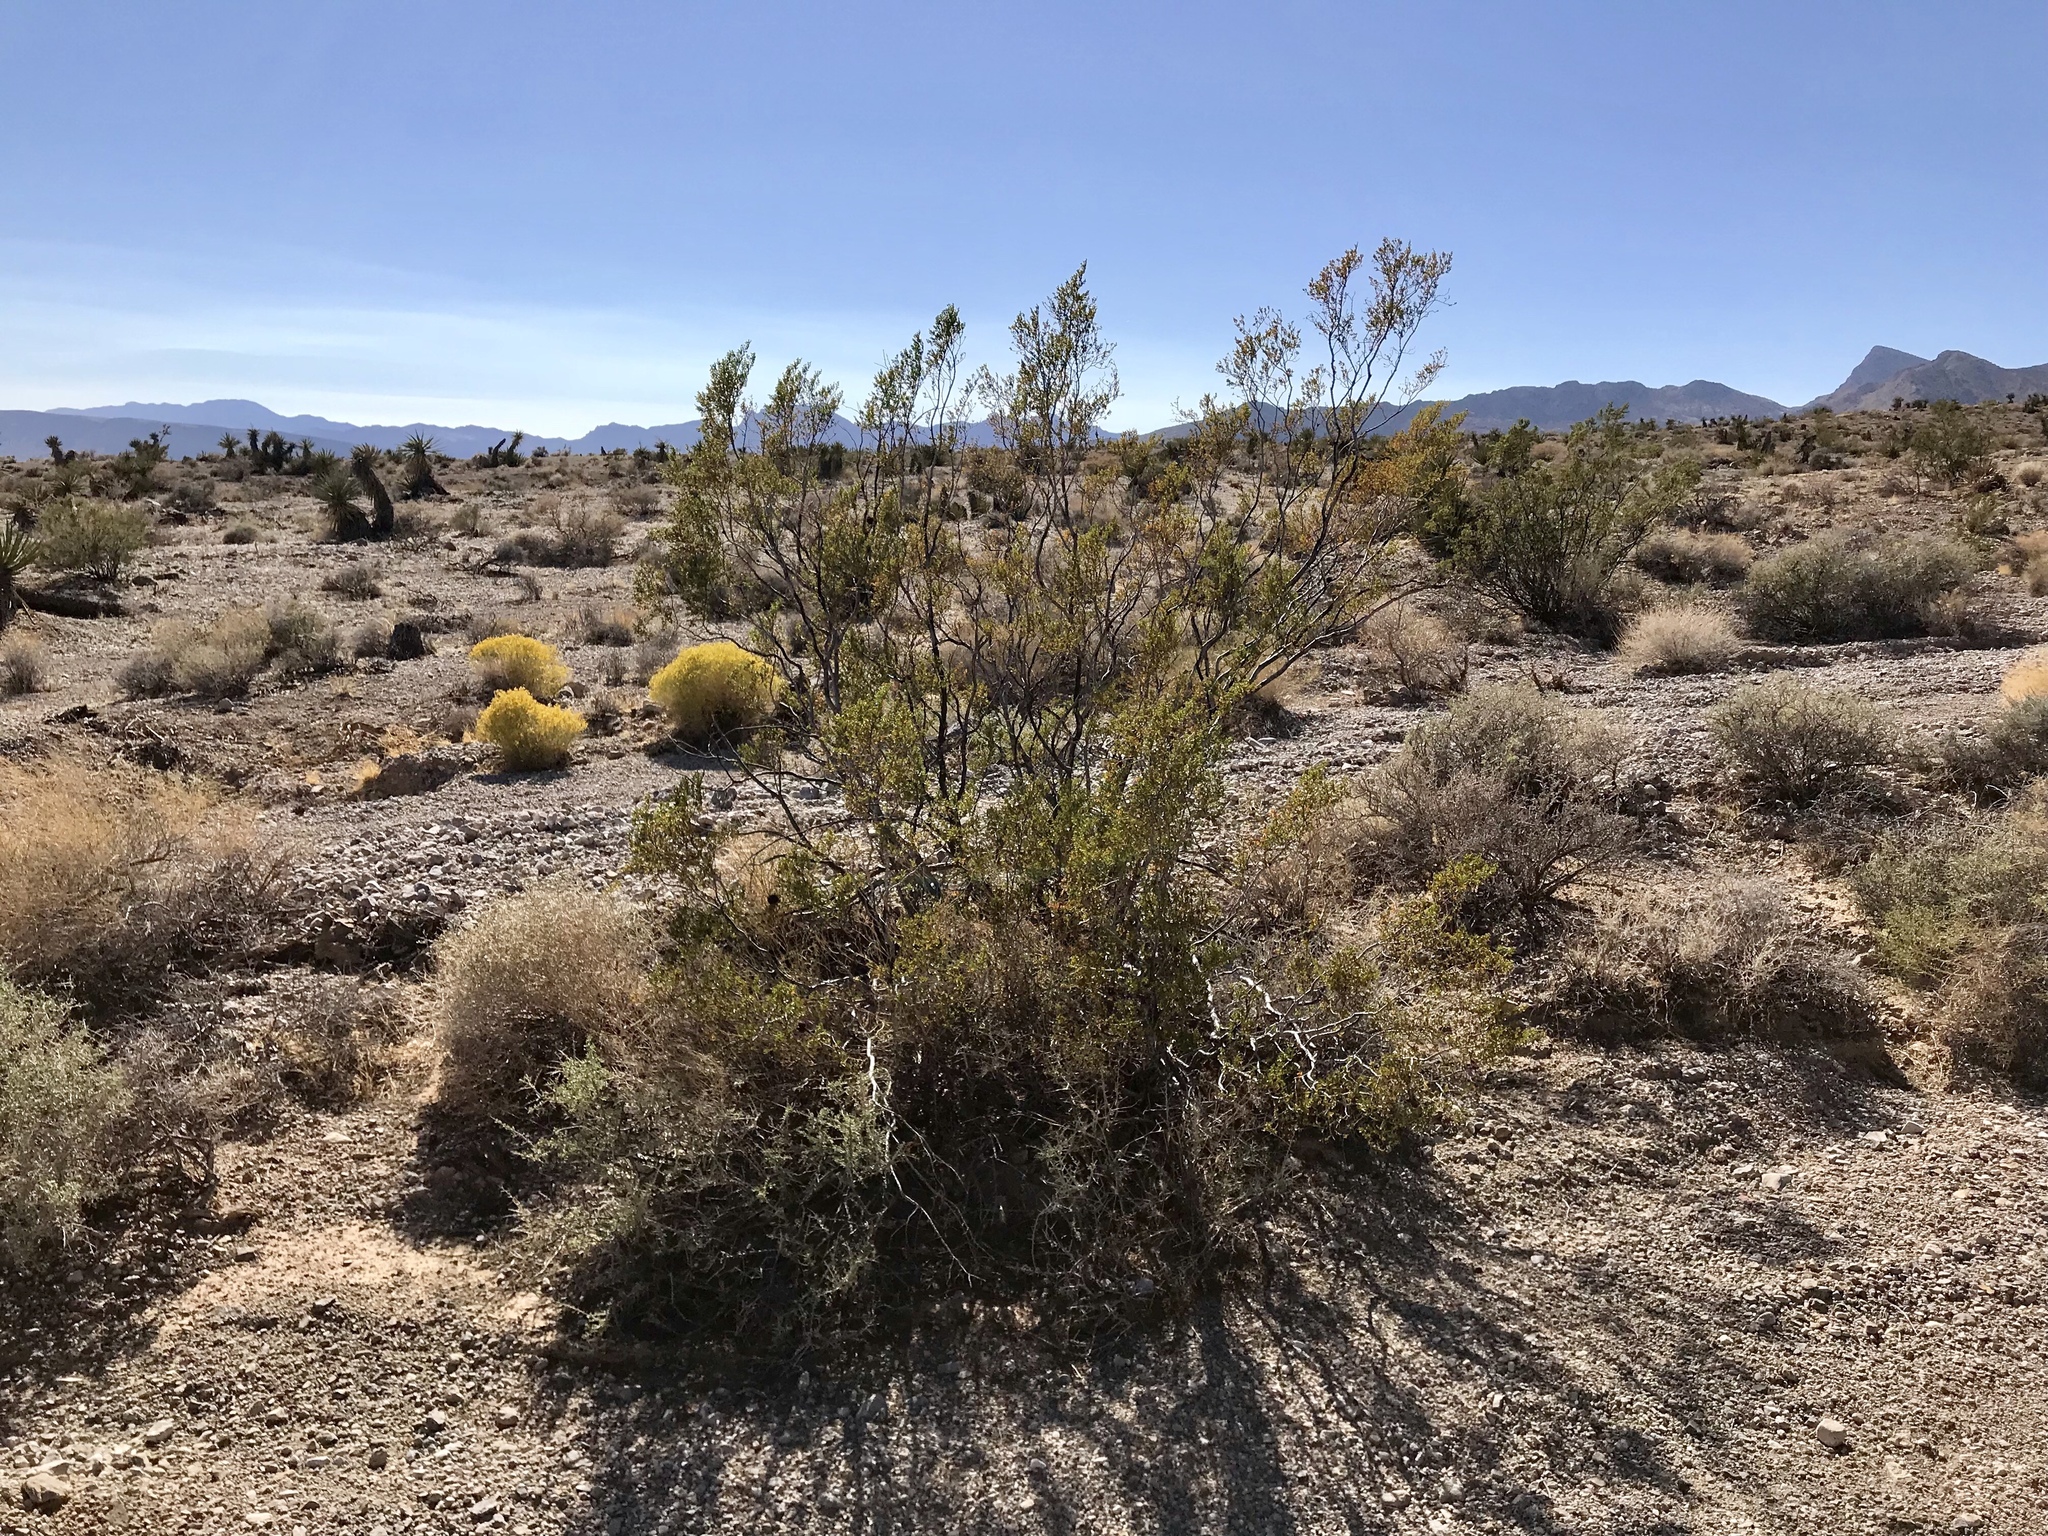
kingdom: Plantae
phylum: Tracheophyta
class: Magnoliopsida
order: Zygophyllales
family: Zygophyllaceae
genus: Larrea
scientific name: Larrea tridentata
